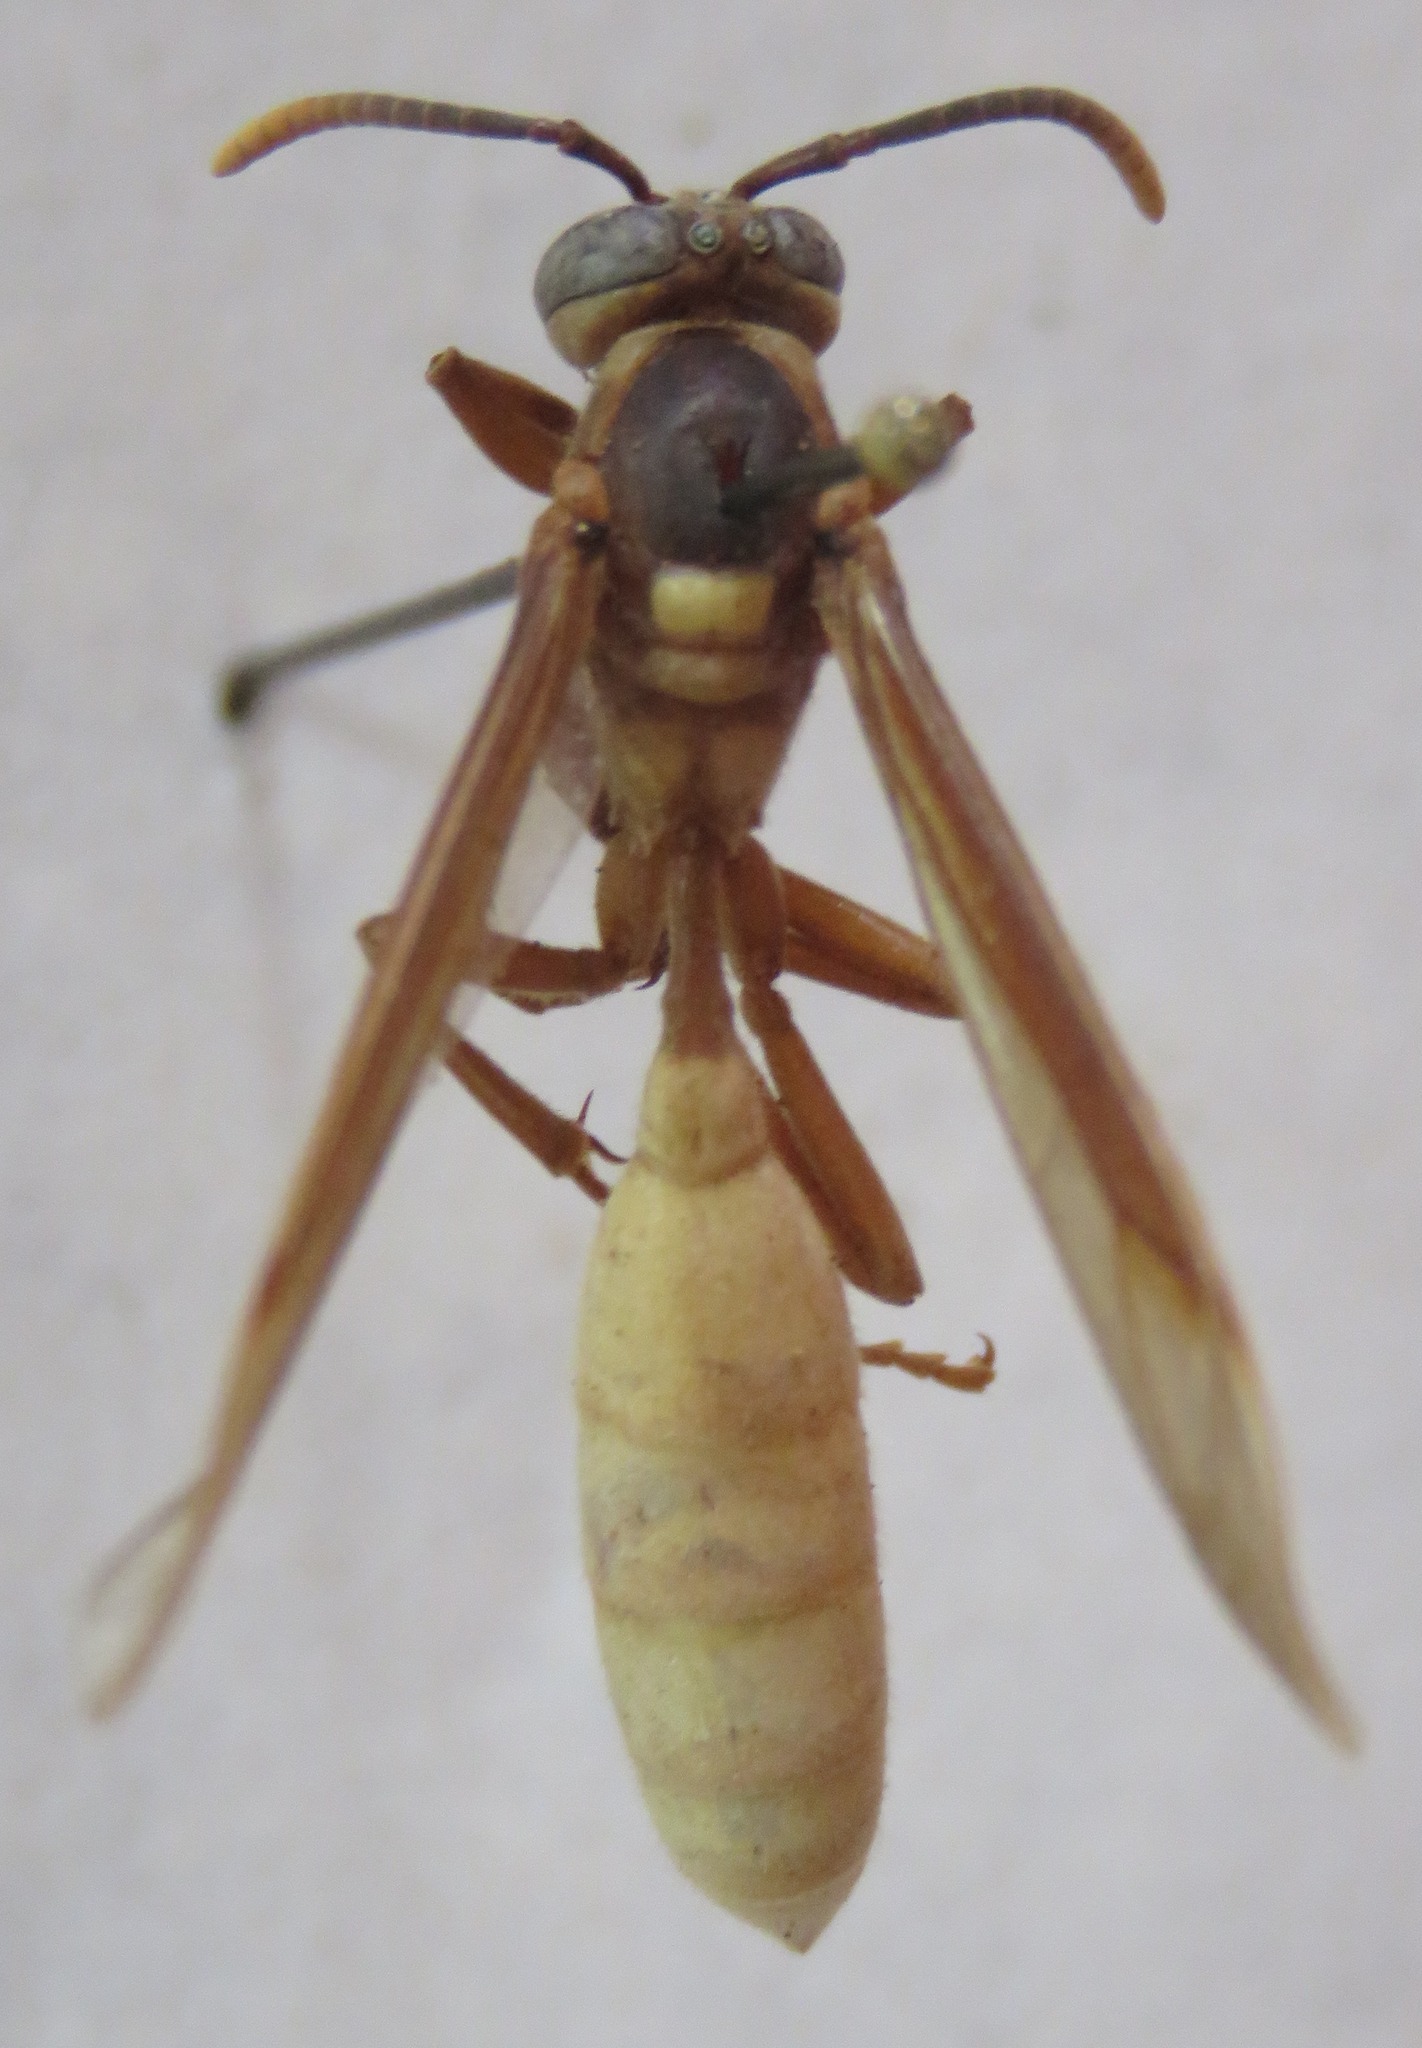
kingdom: Animalia
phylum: Arthropoda
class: Insecta
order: Hymenoptera
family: Vespidae
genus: Apoica
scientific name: Apoica pallens
